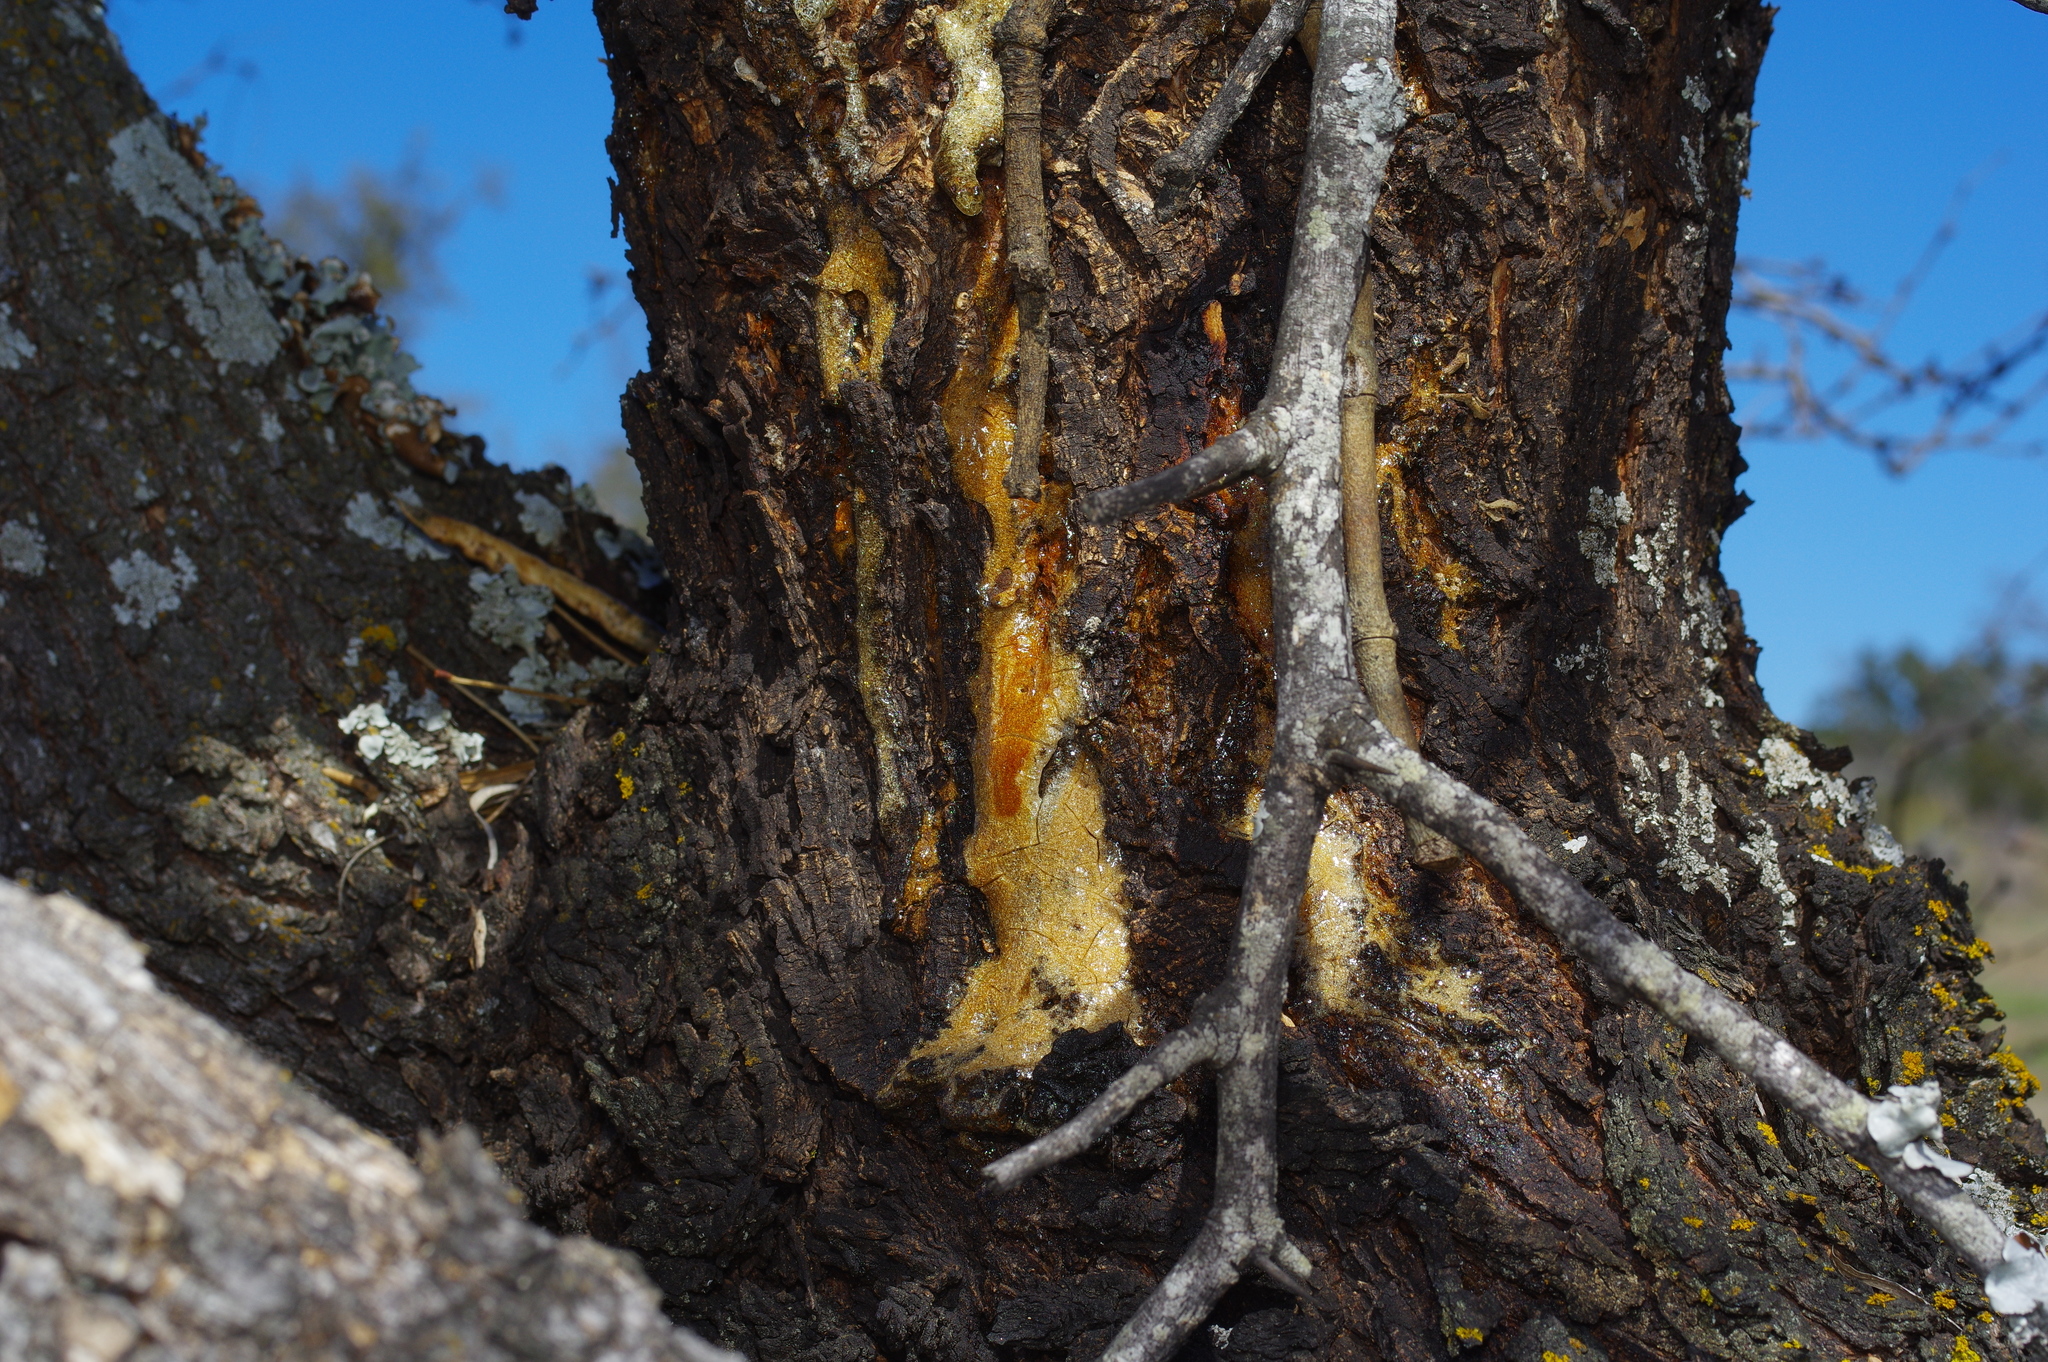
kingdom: Plantae
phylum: Tracheophyta
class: Magnoliopsida
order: Fabales
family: Fabaceae
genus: Prosopis
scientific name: Prosopis glandulosa
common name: Honey mesquite
